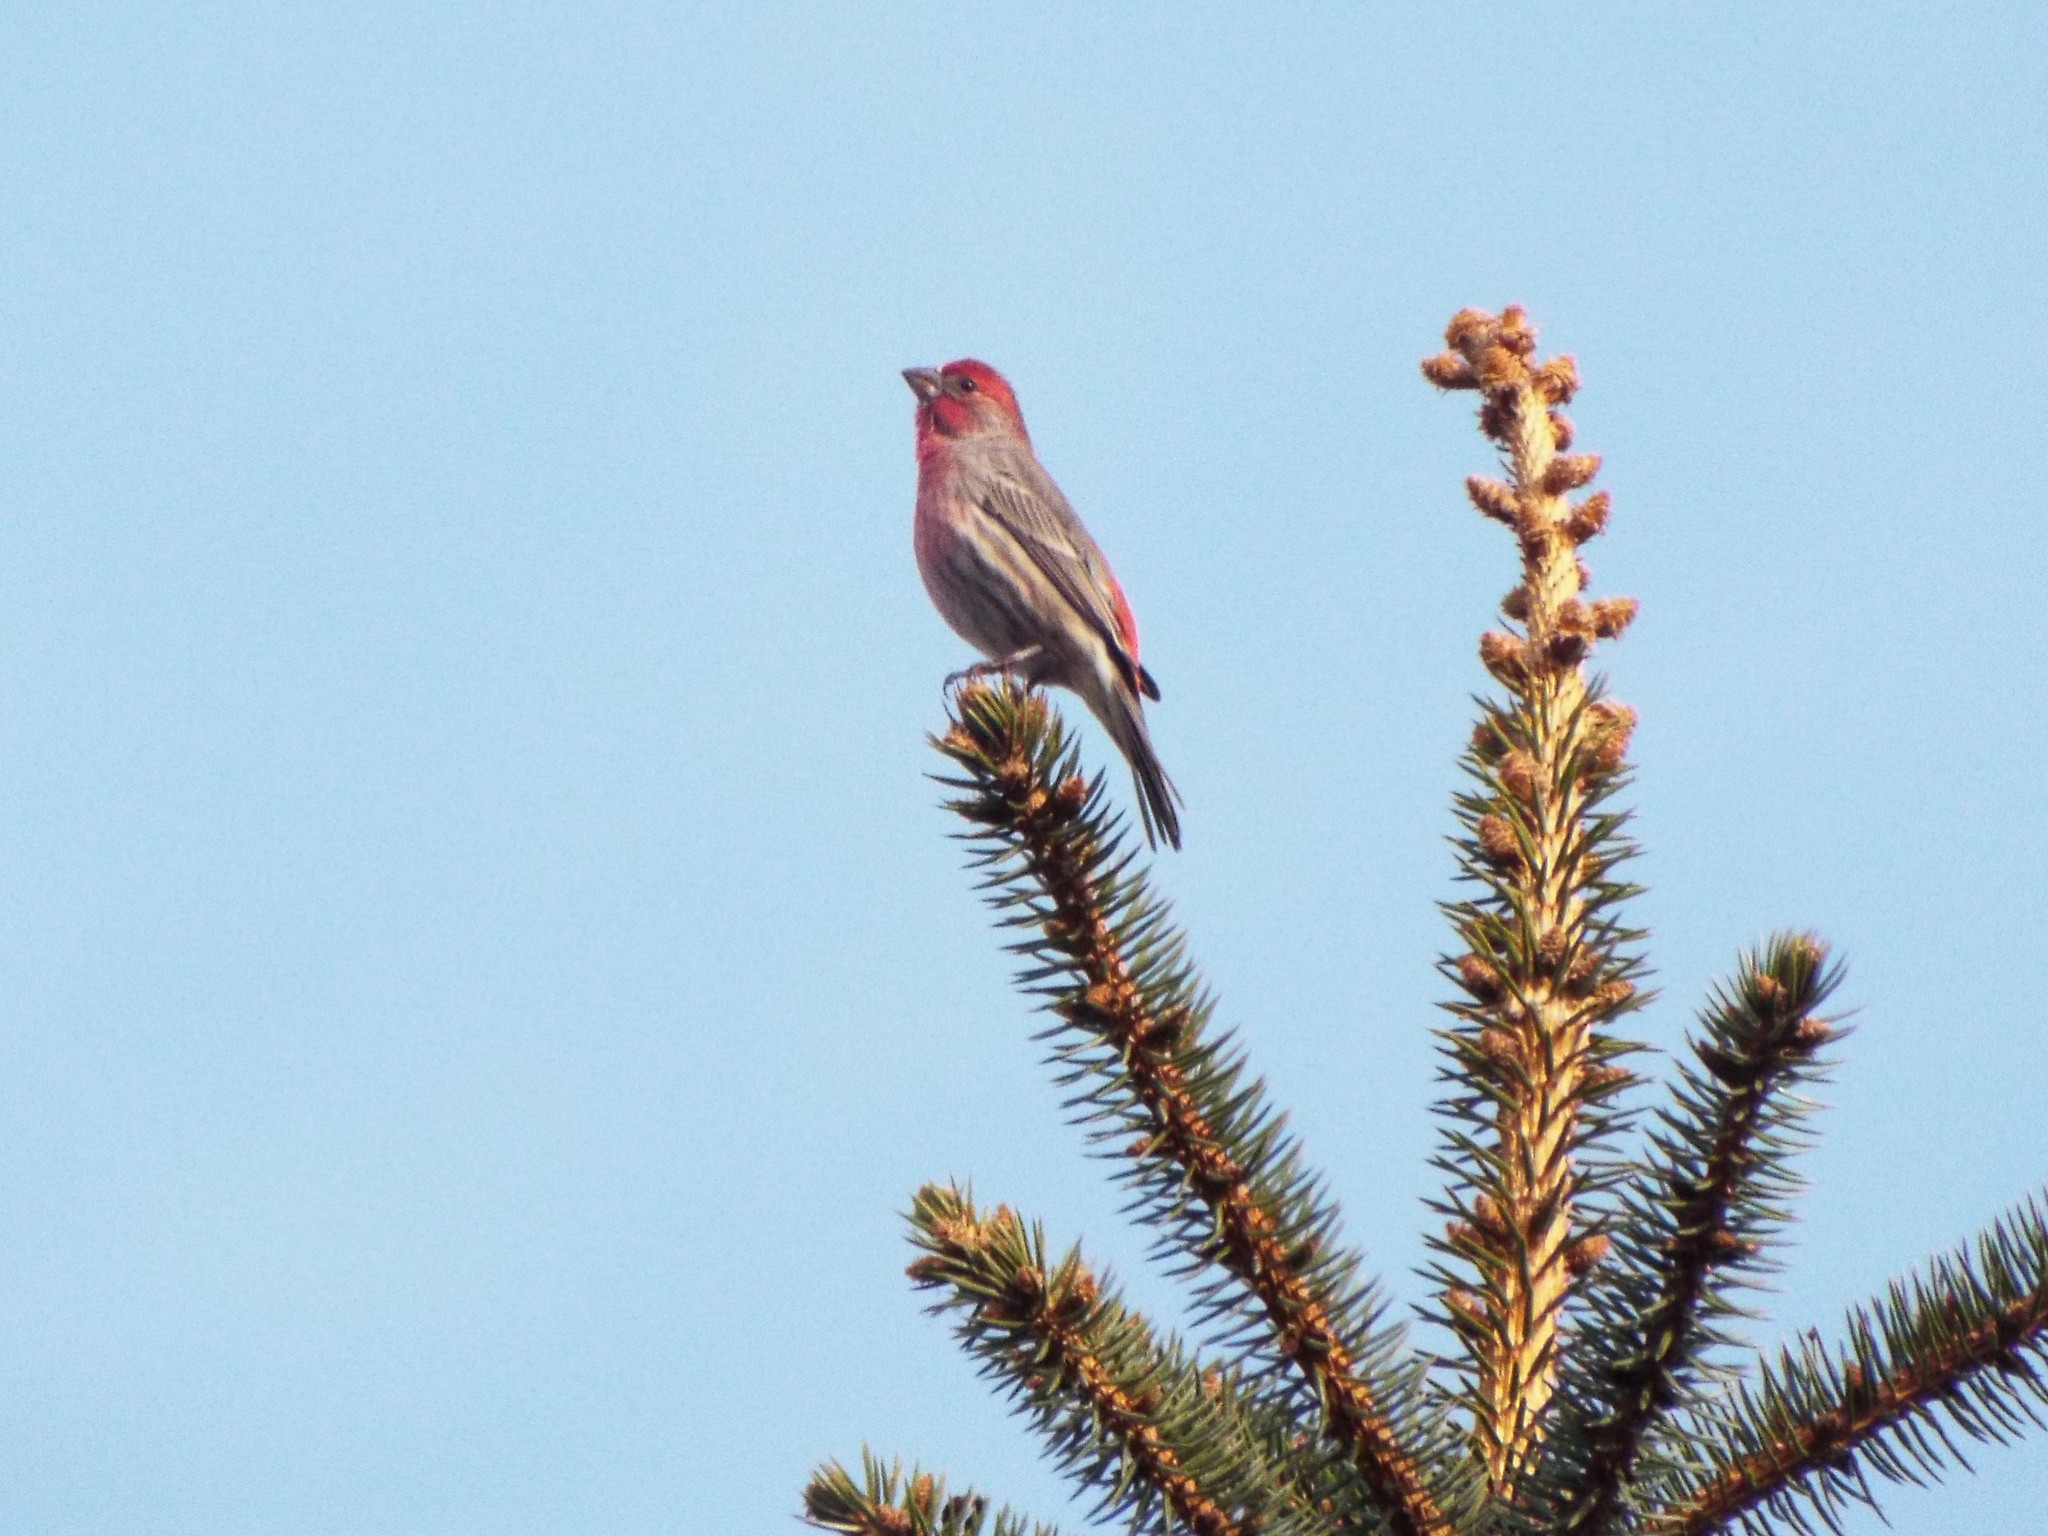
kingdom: Animalia
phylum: Chordata
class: Aves
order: Passeriformes
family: Fringillidae
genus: Haemorhous
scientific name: Haemorhous mexicanus
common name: House finch
